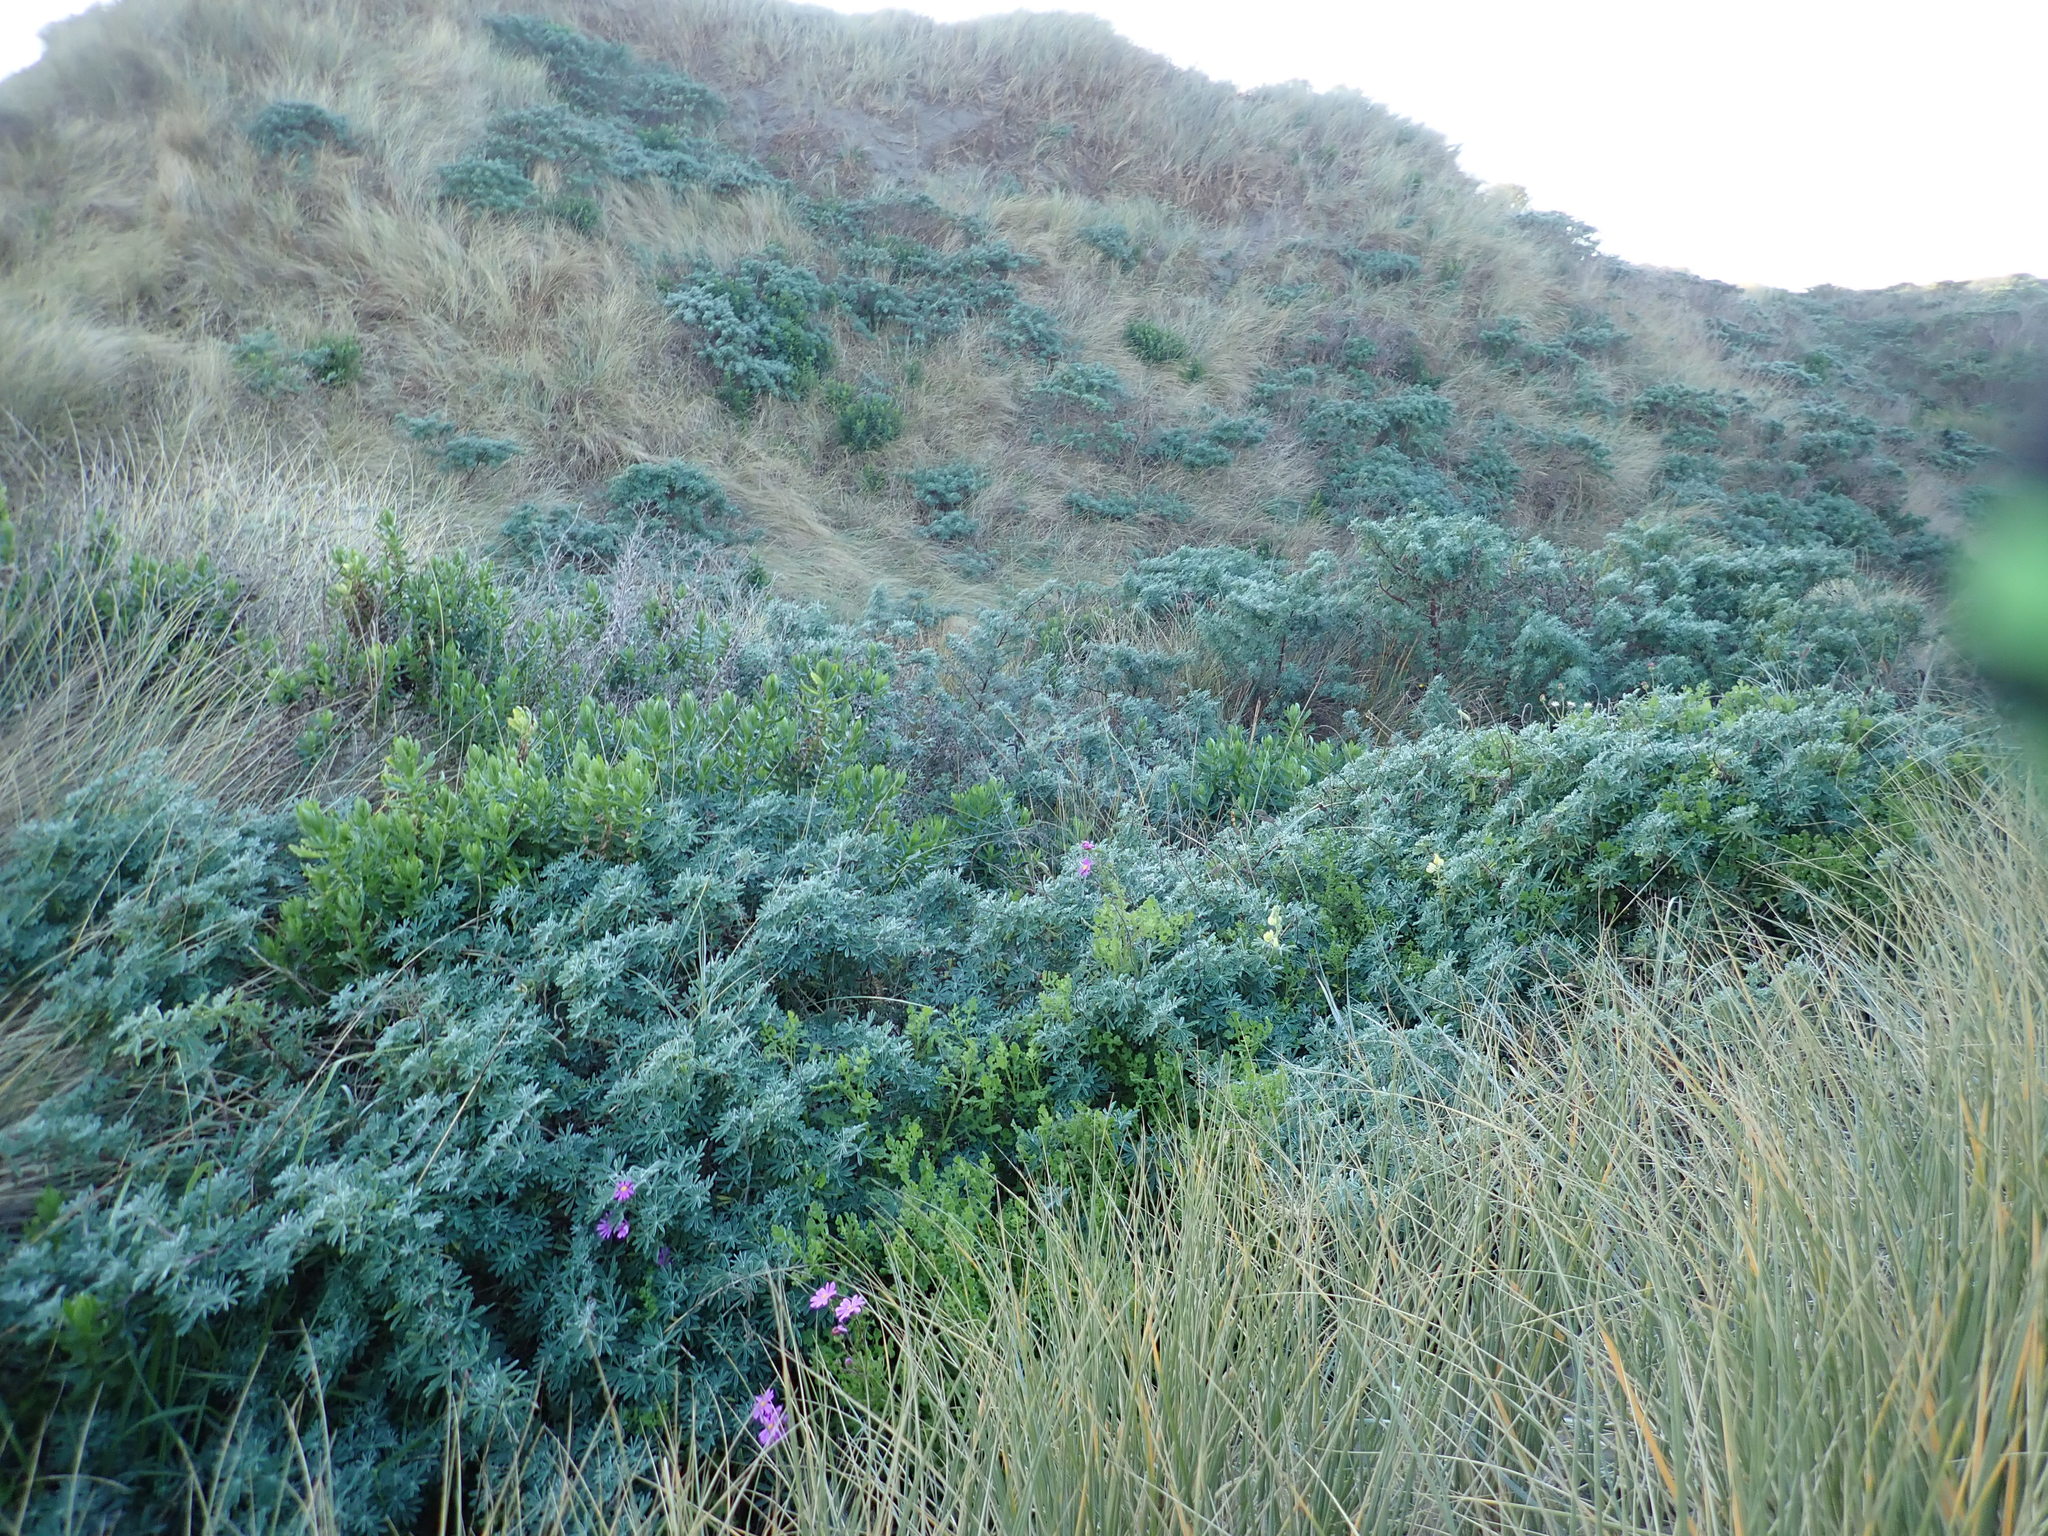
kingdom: Plantae
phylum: Tracheophyta
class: Magnoliopsida
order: Asterales
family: Asteraceae
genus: Senecio
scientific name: Senecio elegans
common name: Purple groundsel
